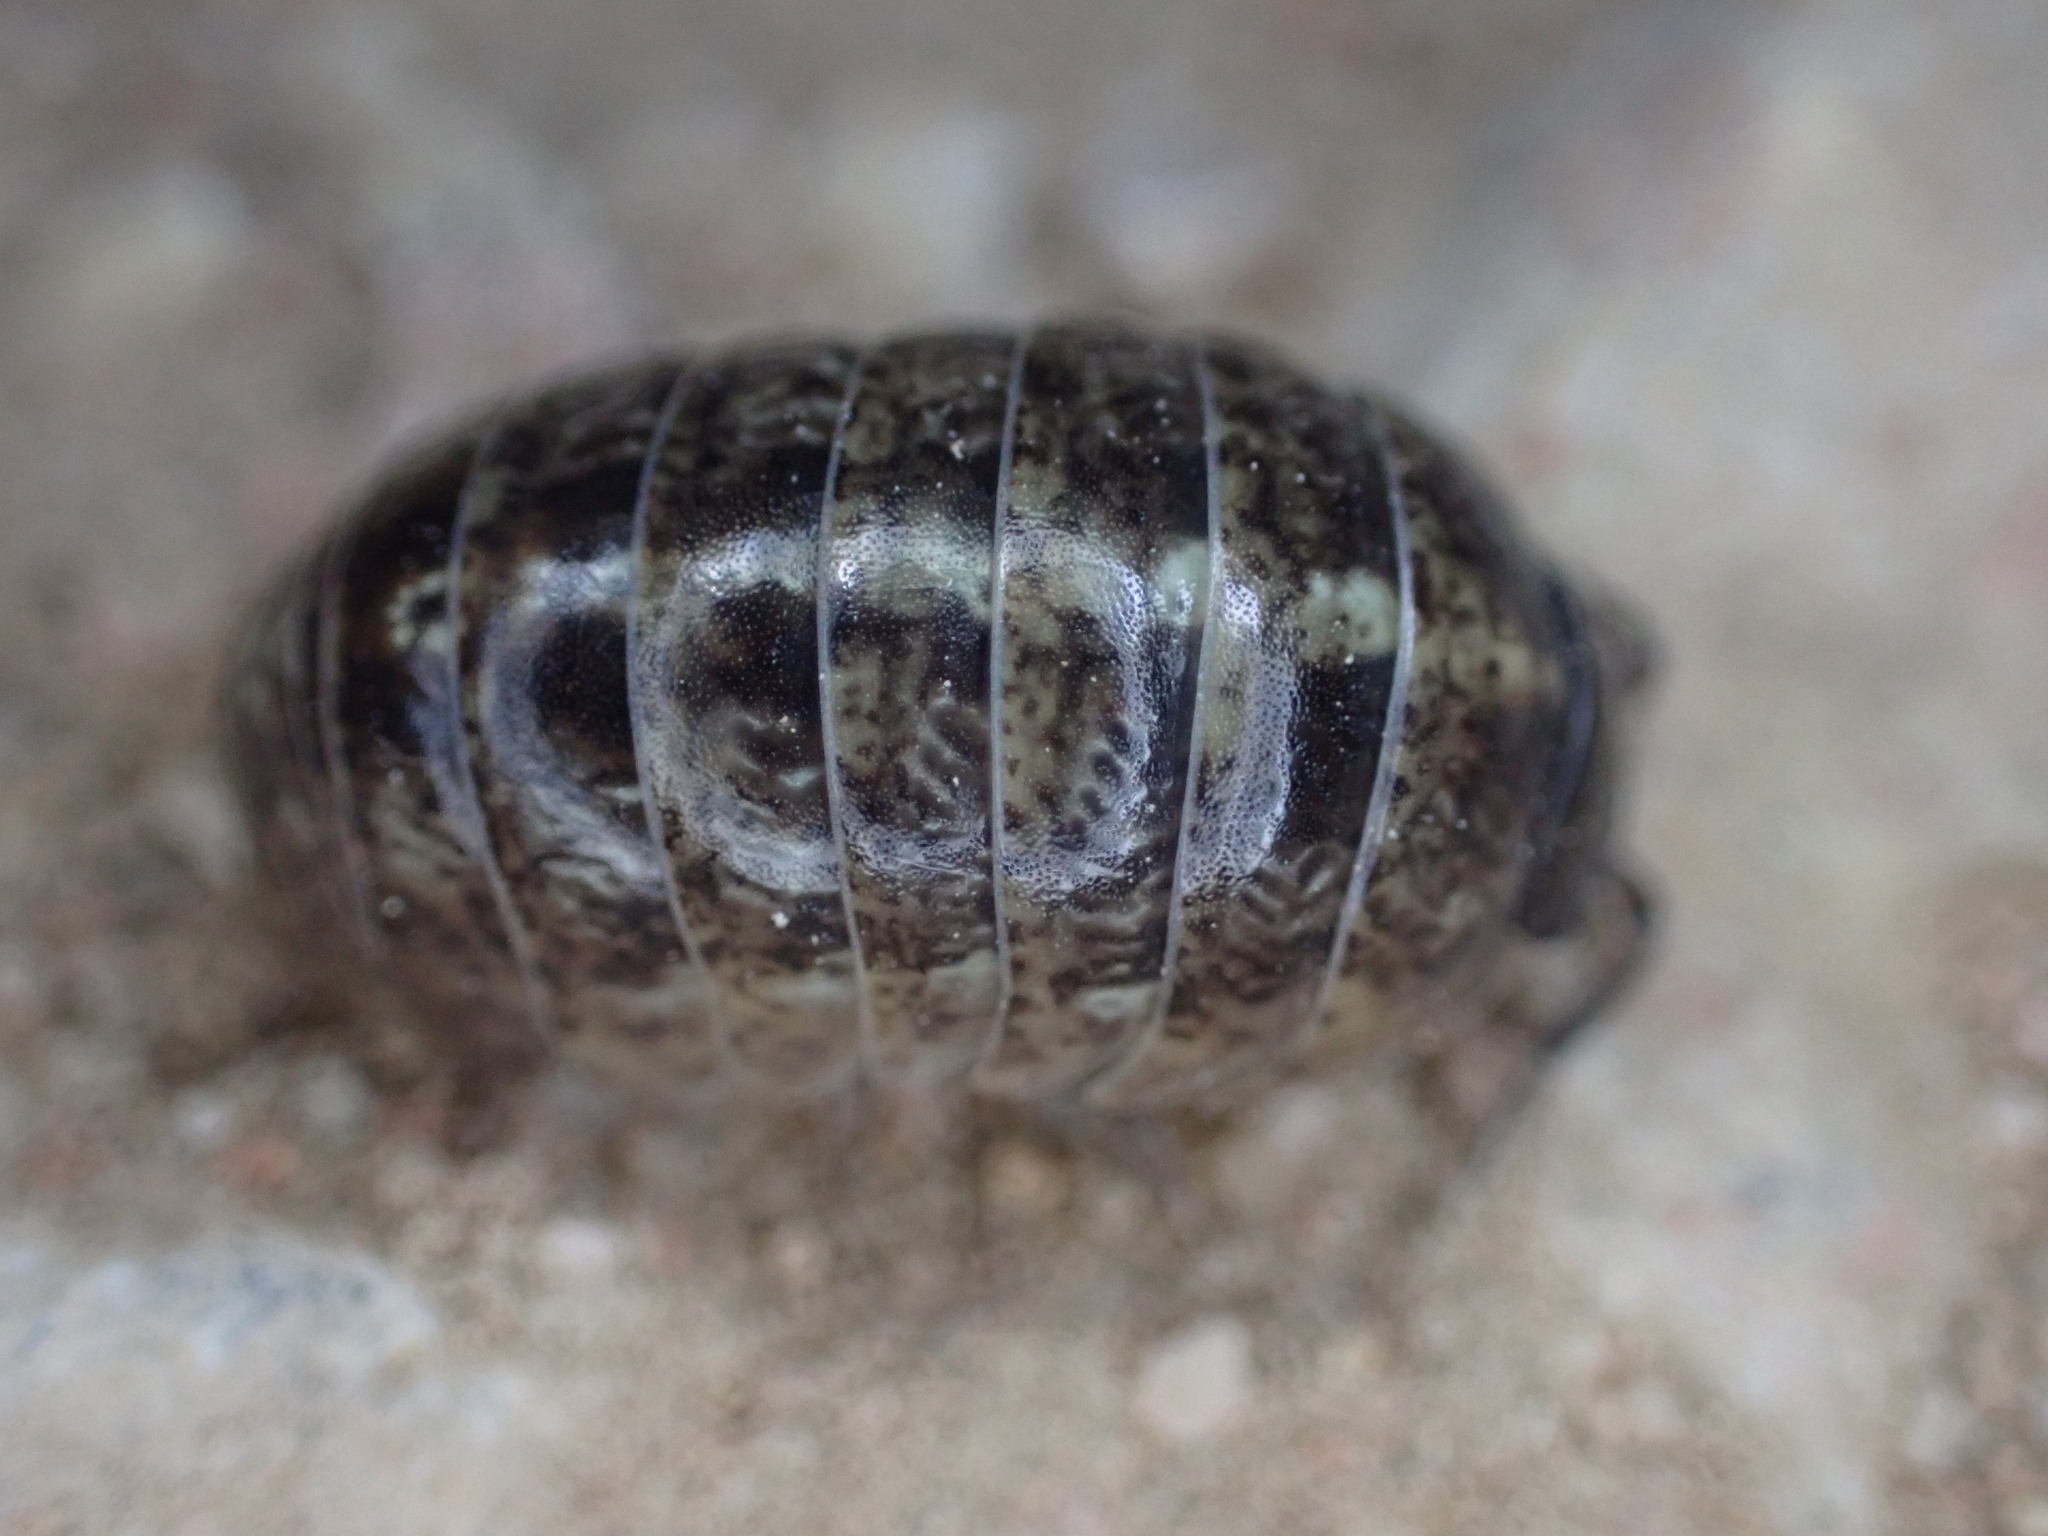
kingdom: Animalia
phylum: Arthropoda
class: Malacostraca
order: Isopoda
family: Armadillidiidae
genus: Armadillidium
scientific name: Armadillidium vulgare
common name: Common pill woodlouse
